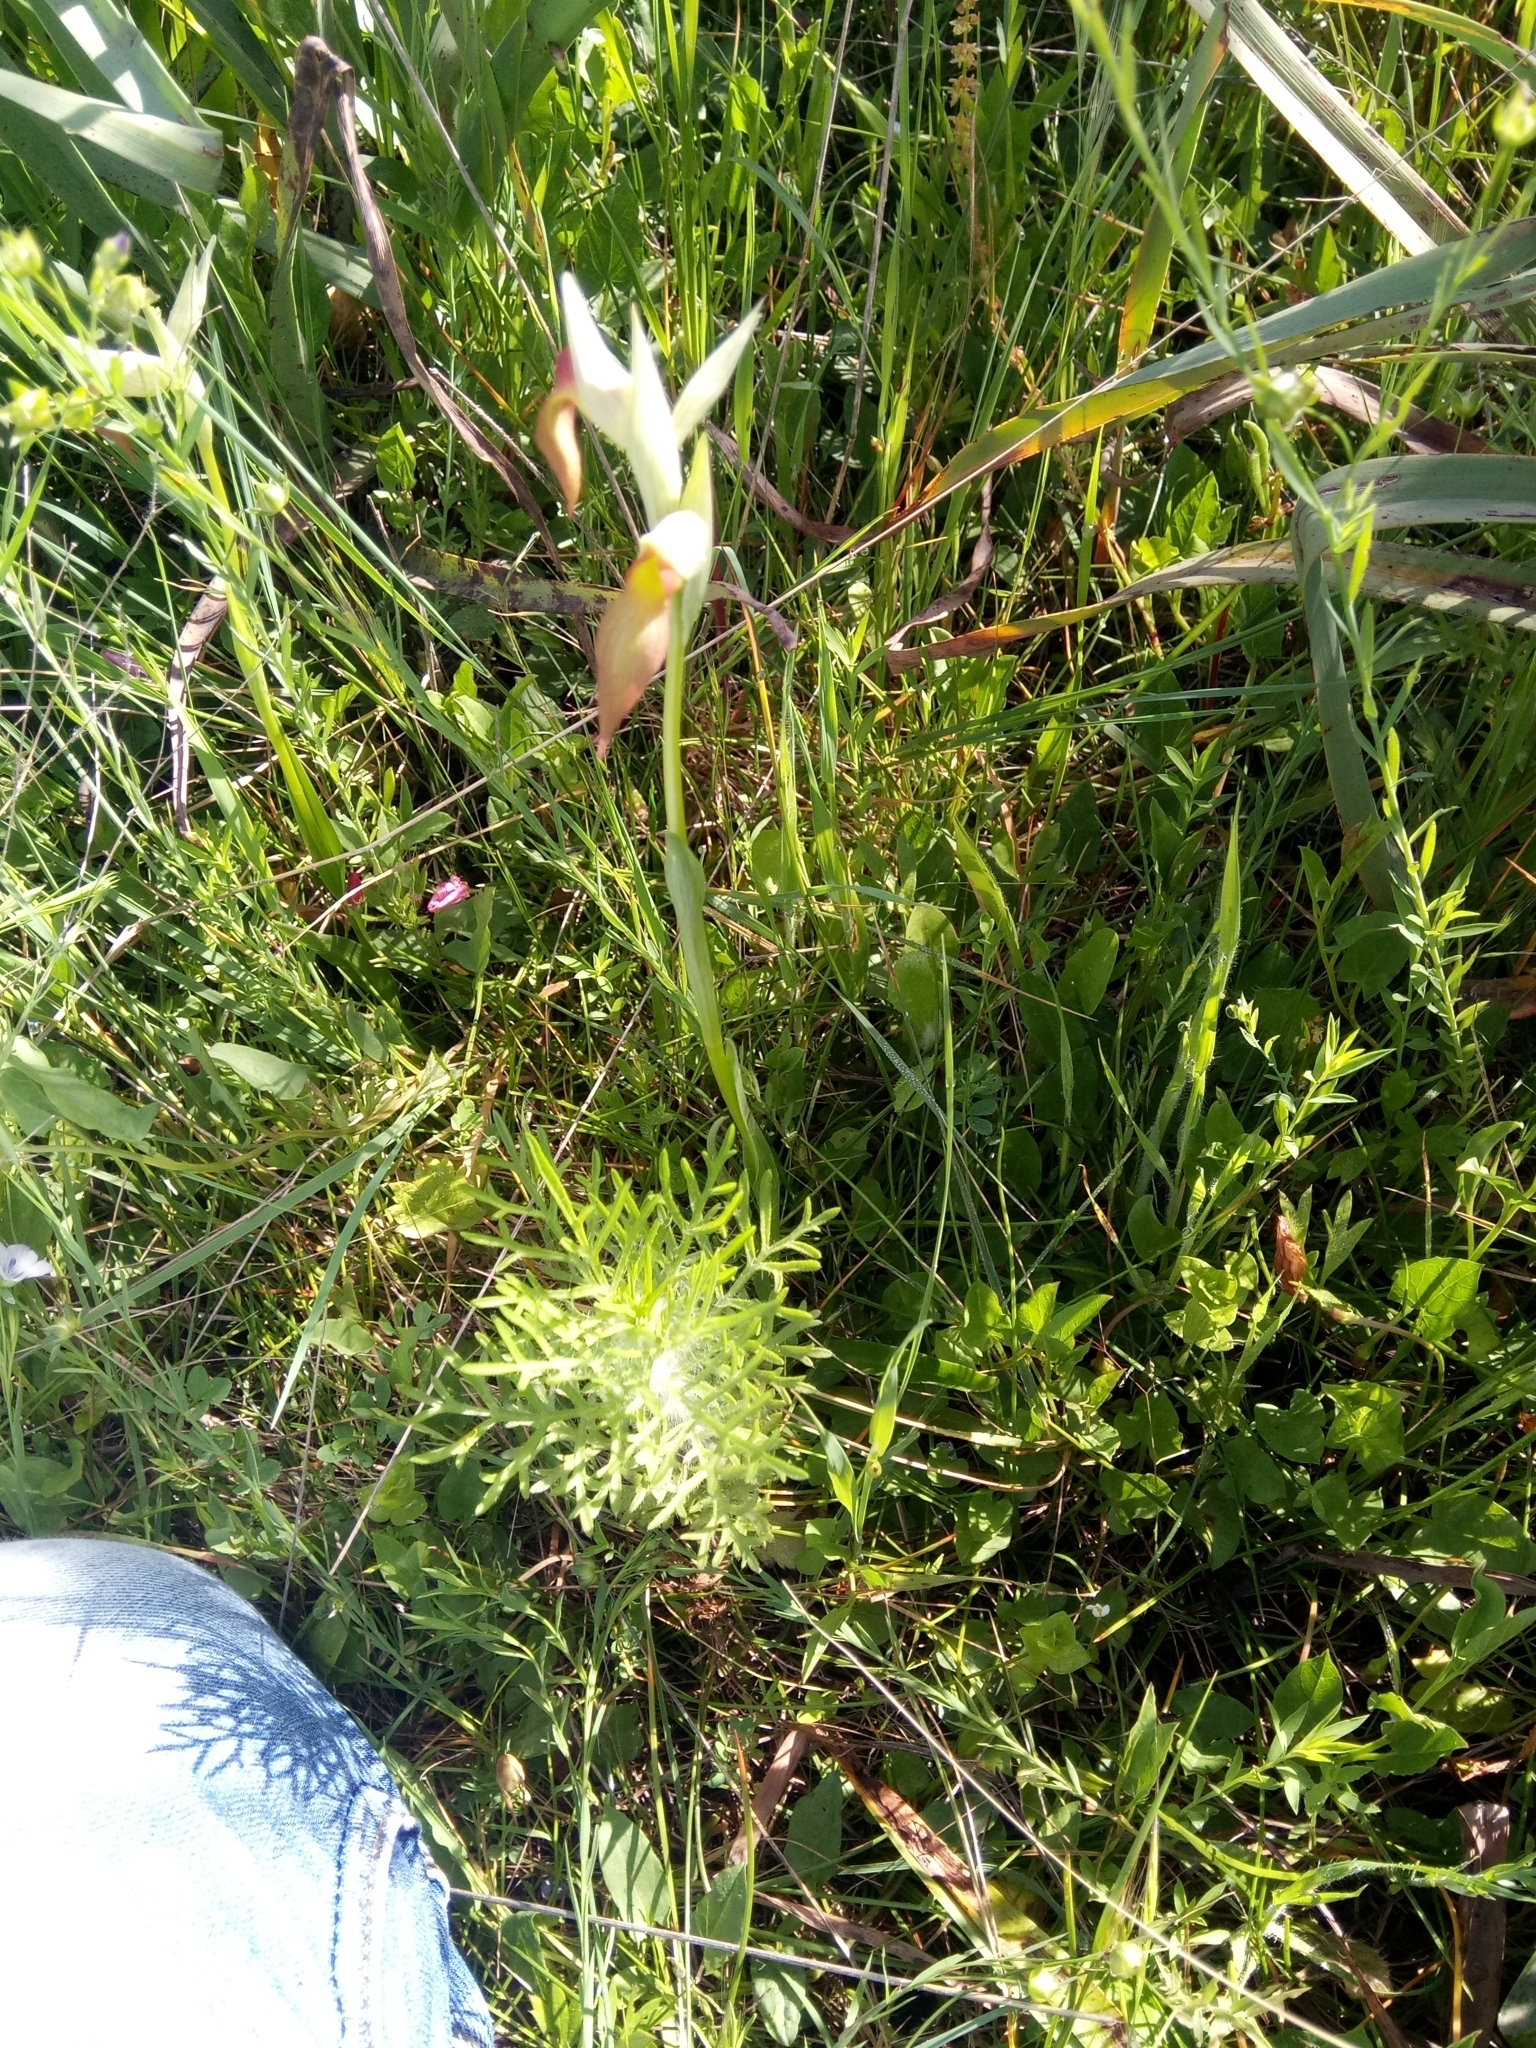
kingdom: Plantae
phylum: Tracheophyta
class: Liliopsida
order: Asparagales
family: Orchidaceae
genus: Serapias
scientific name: Serapias lingua
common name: Tongue-orchid
